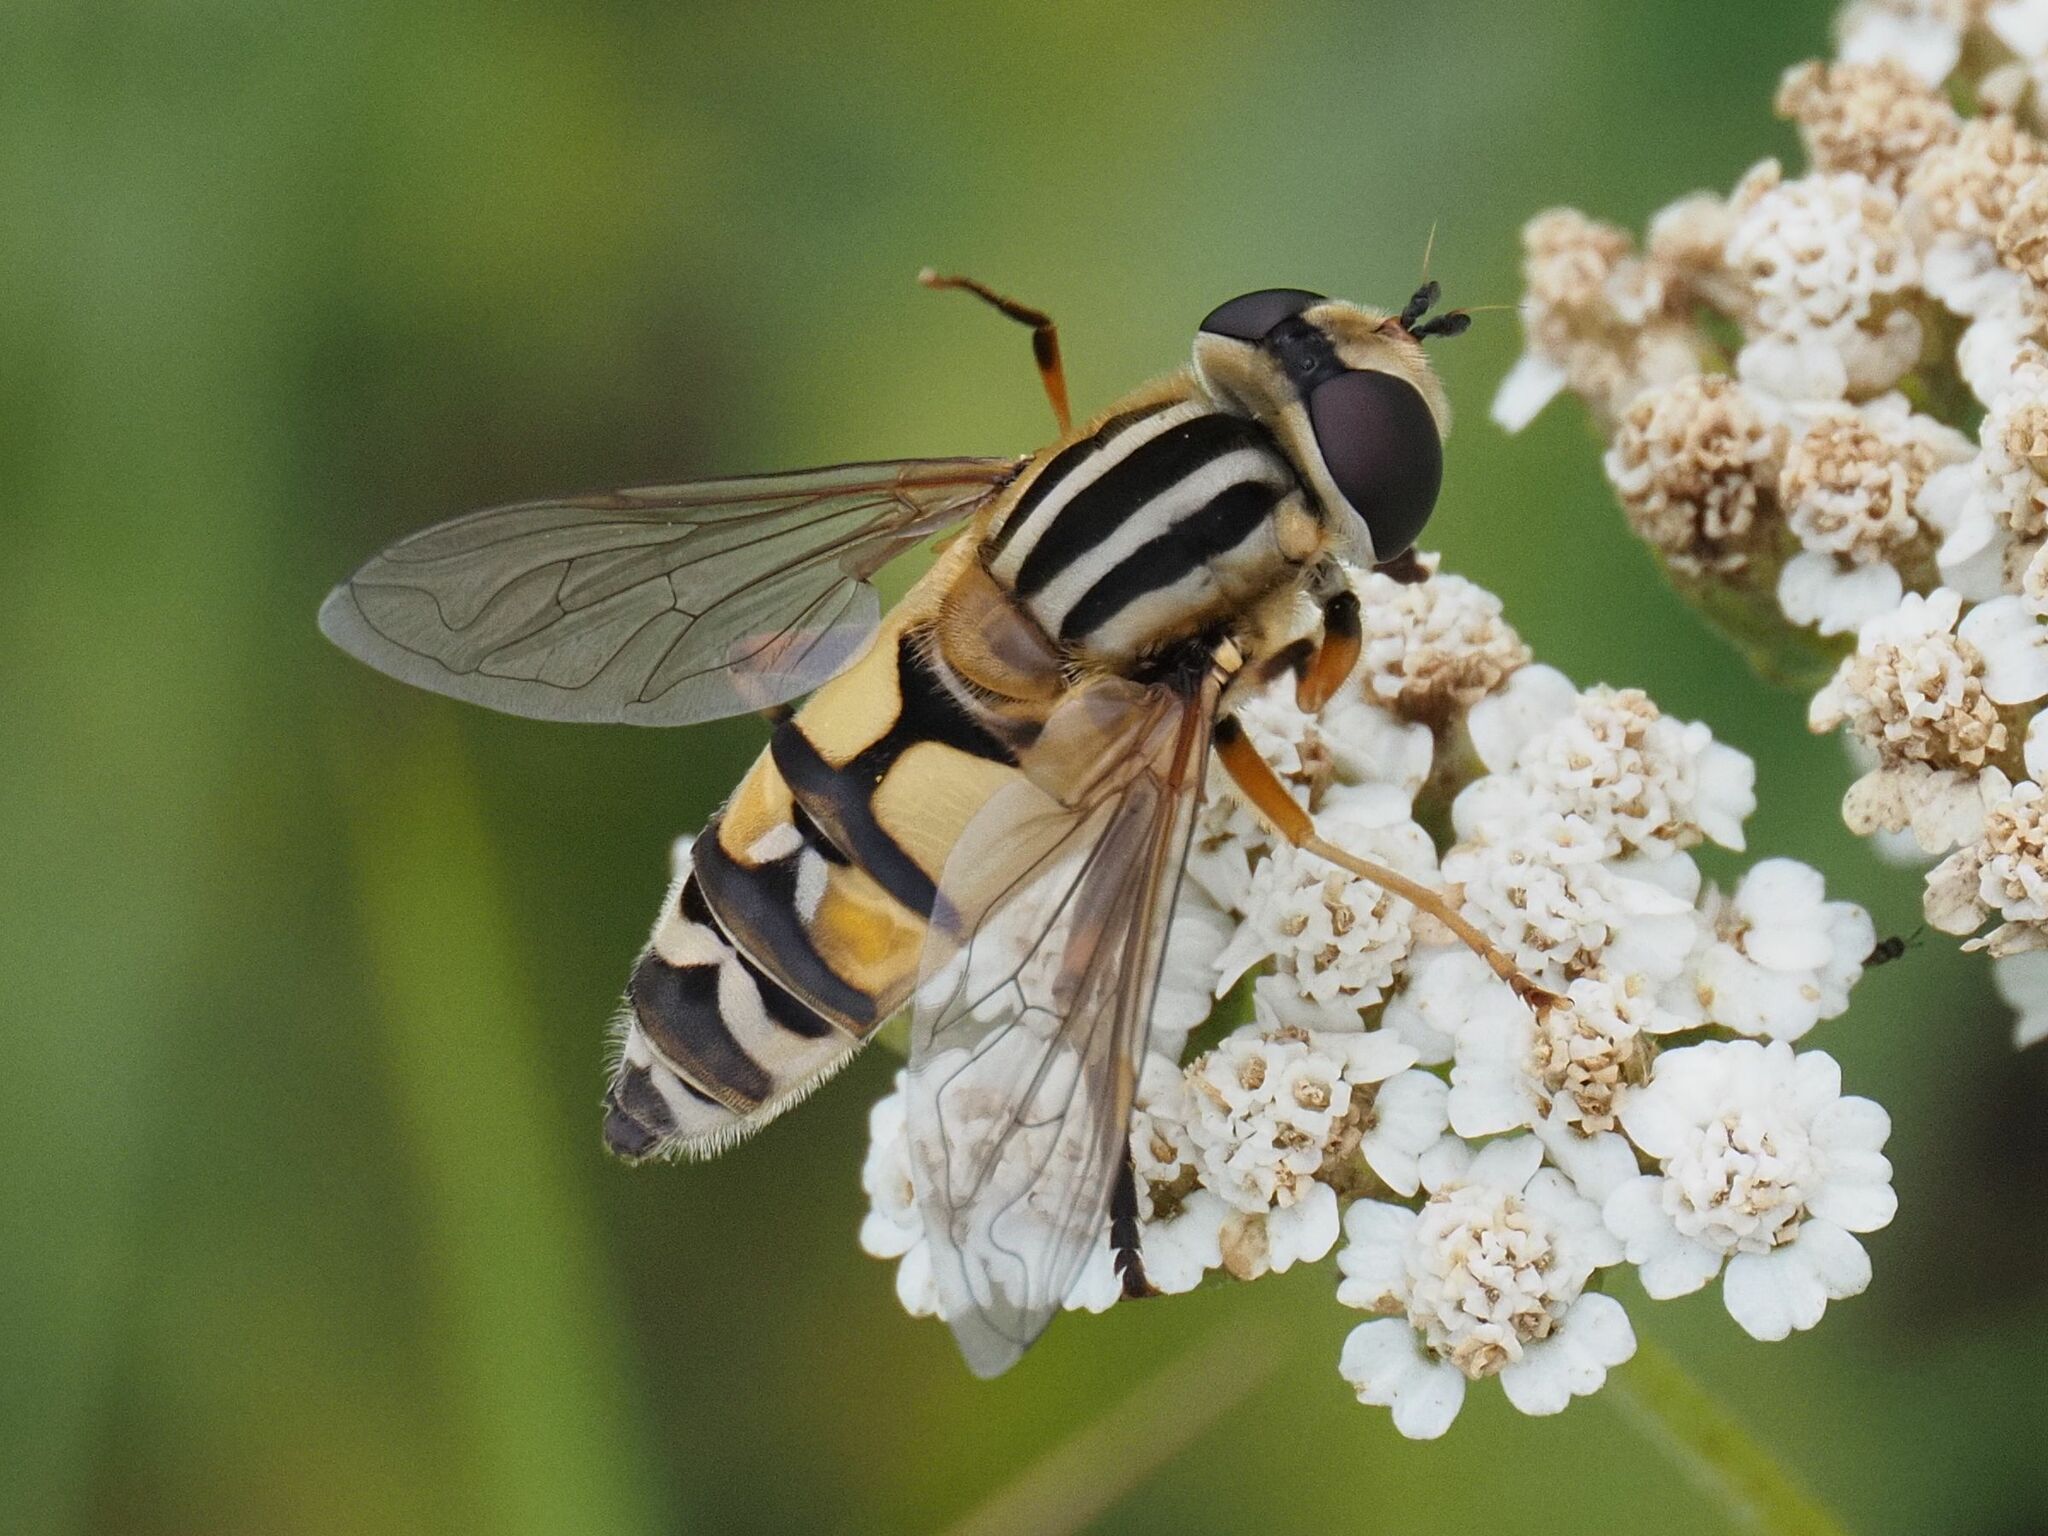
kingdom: Animalia
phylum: Arthropoda
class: Insecta
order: Diptera
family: Syrphidae
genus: Helophilus
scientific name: Helophilus trivittatus
